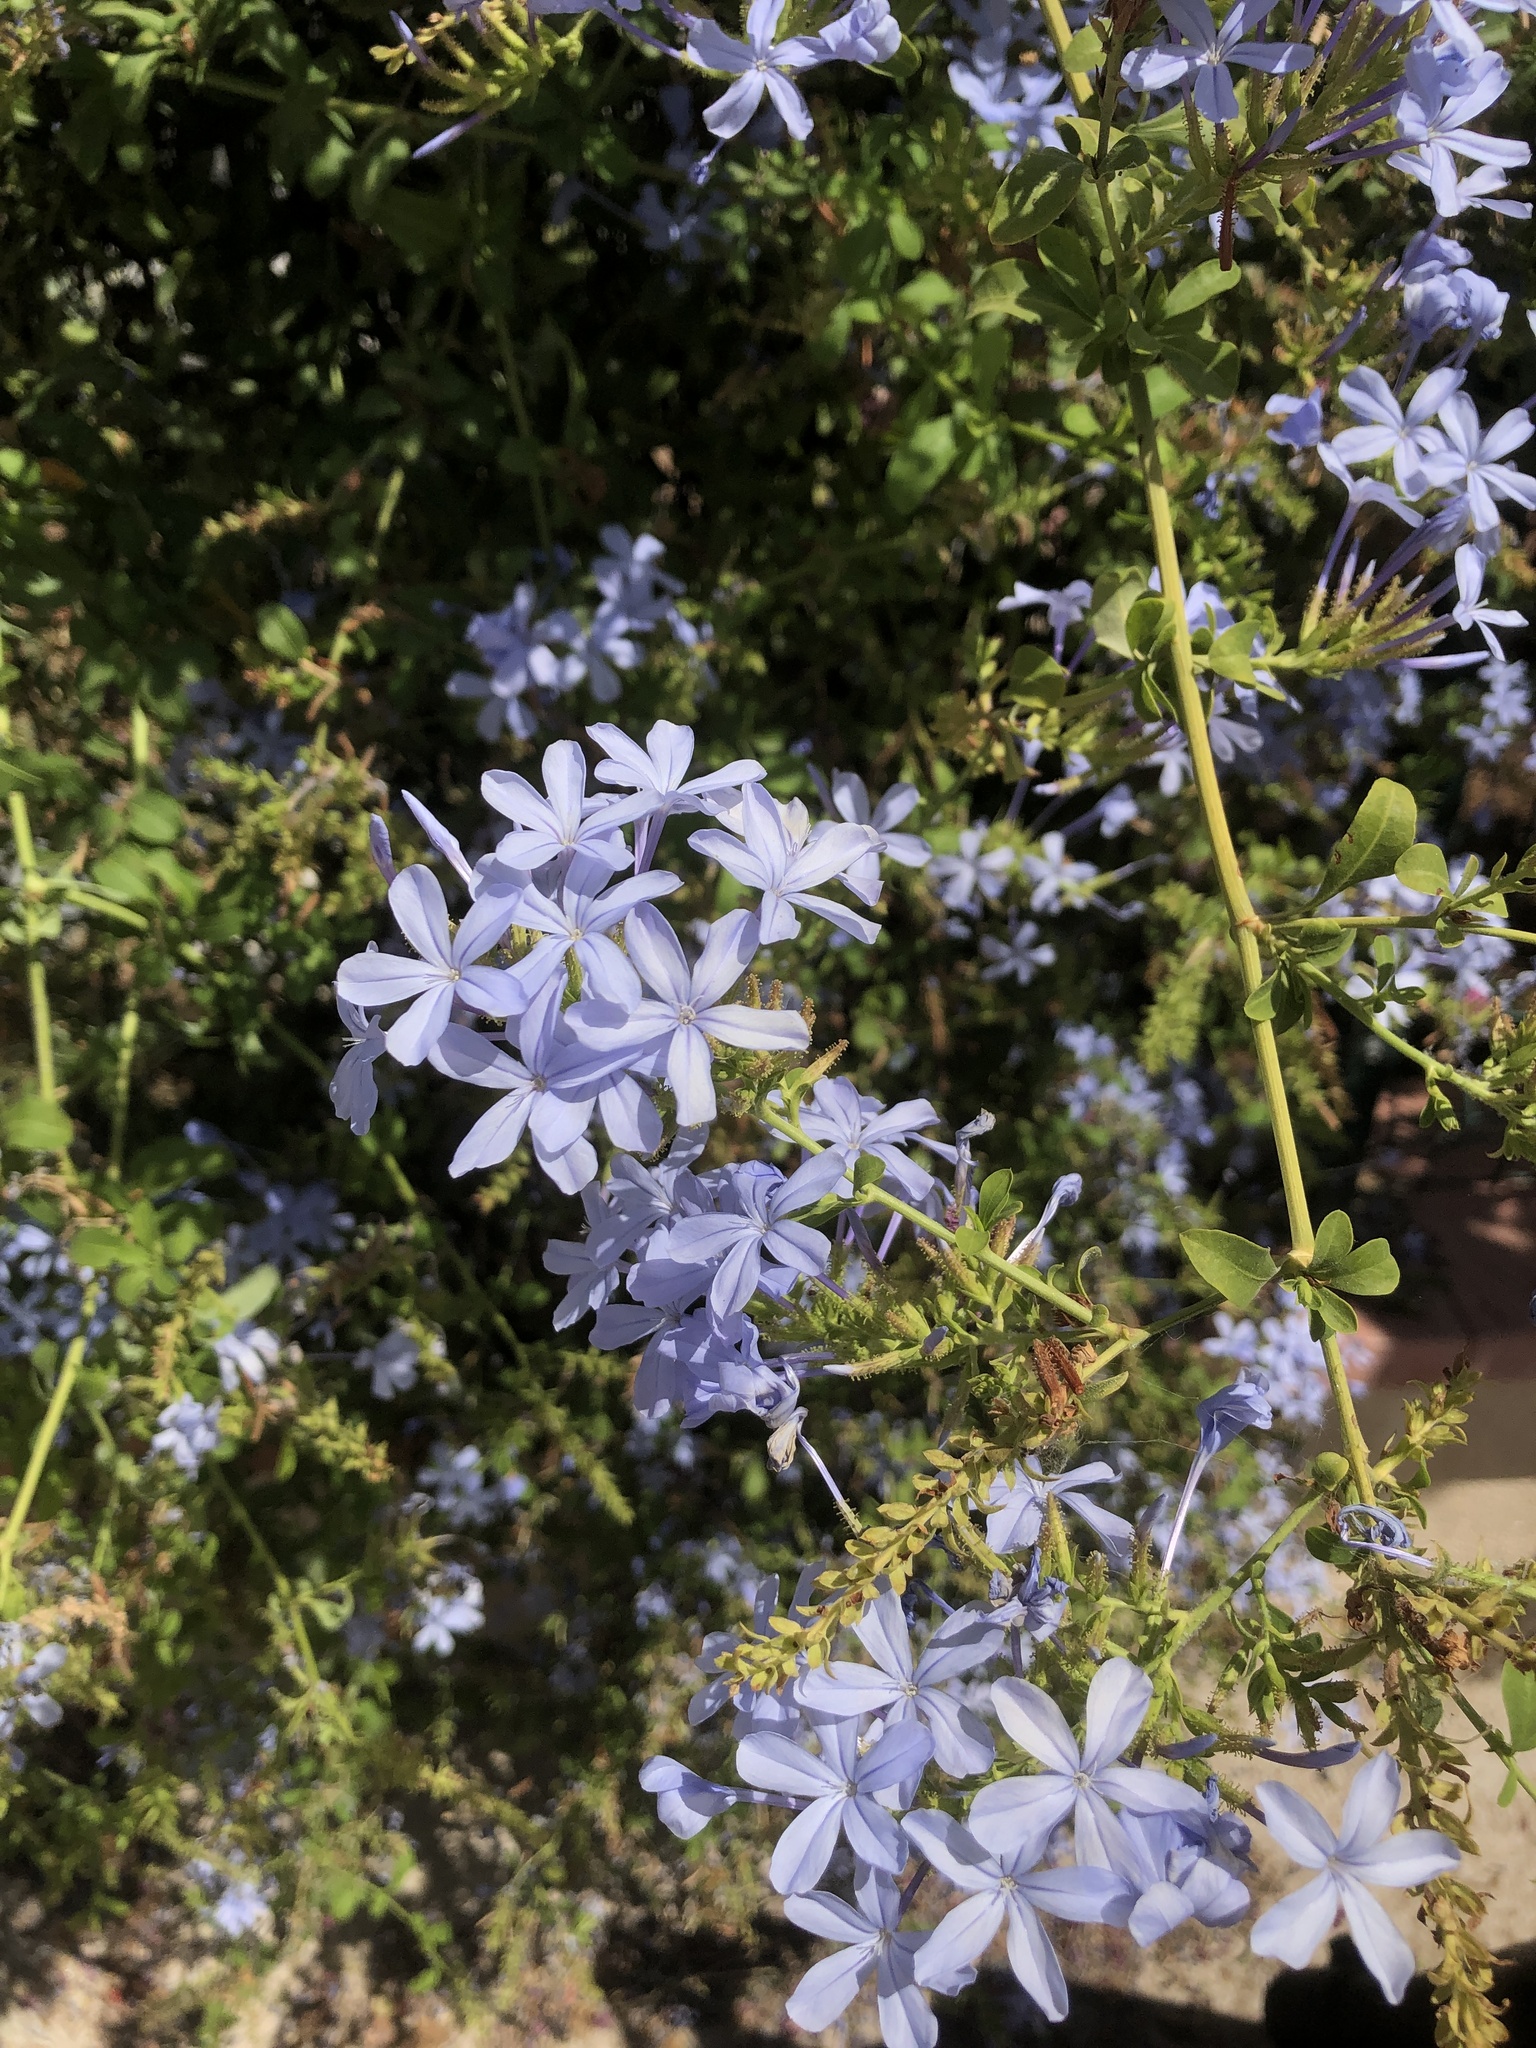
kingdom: Plantae
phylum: Tracheophyta
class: Magnoliopsida
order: Caryophyllales
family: Plumbaginaceae
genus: Plumbago
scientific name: Plumbago auriculata
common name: Cape leadwort
